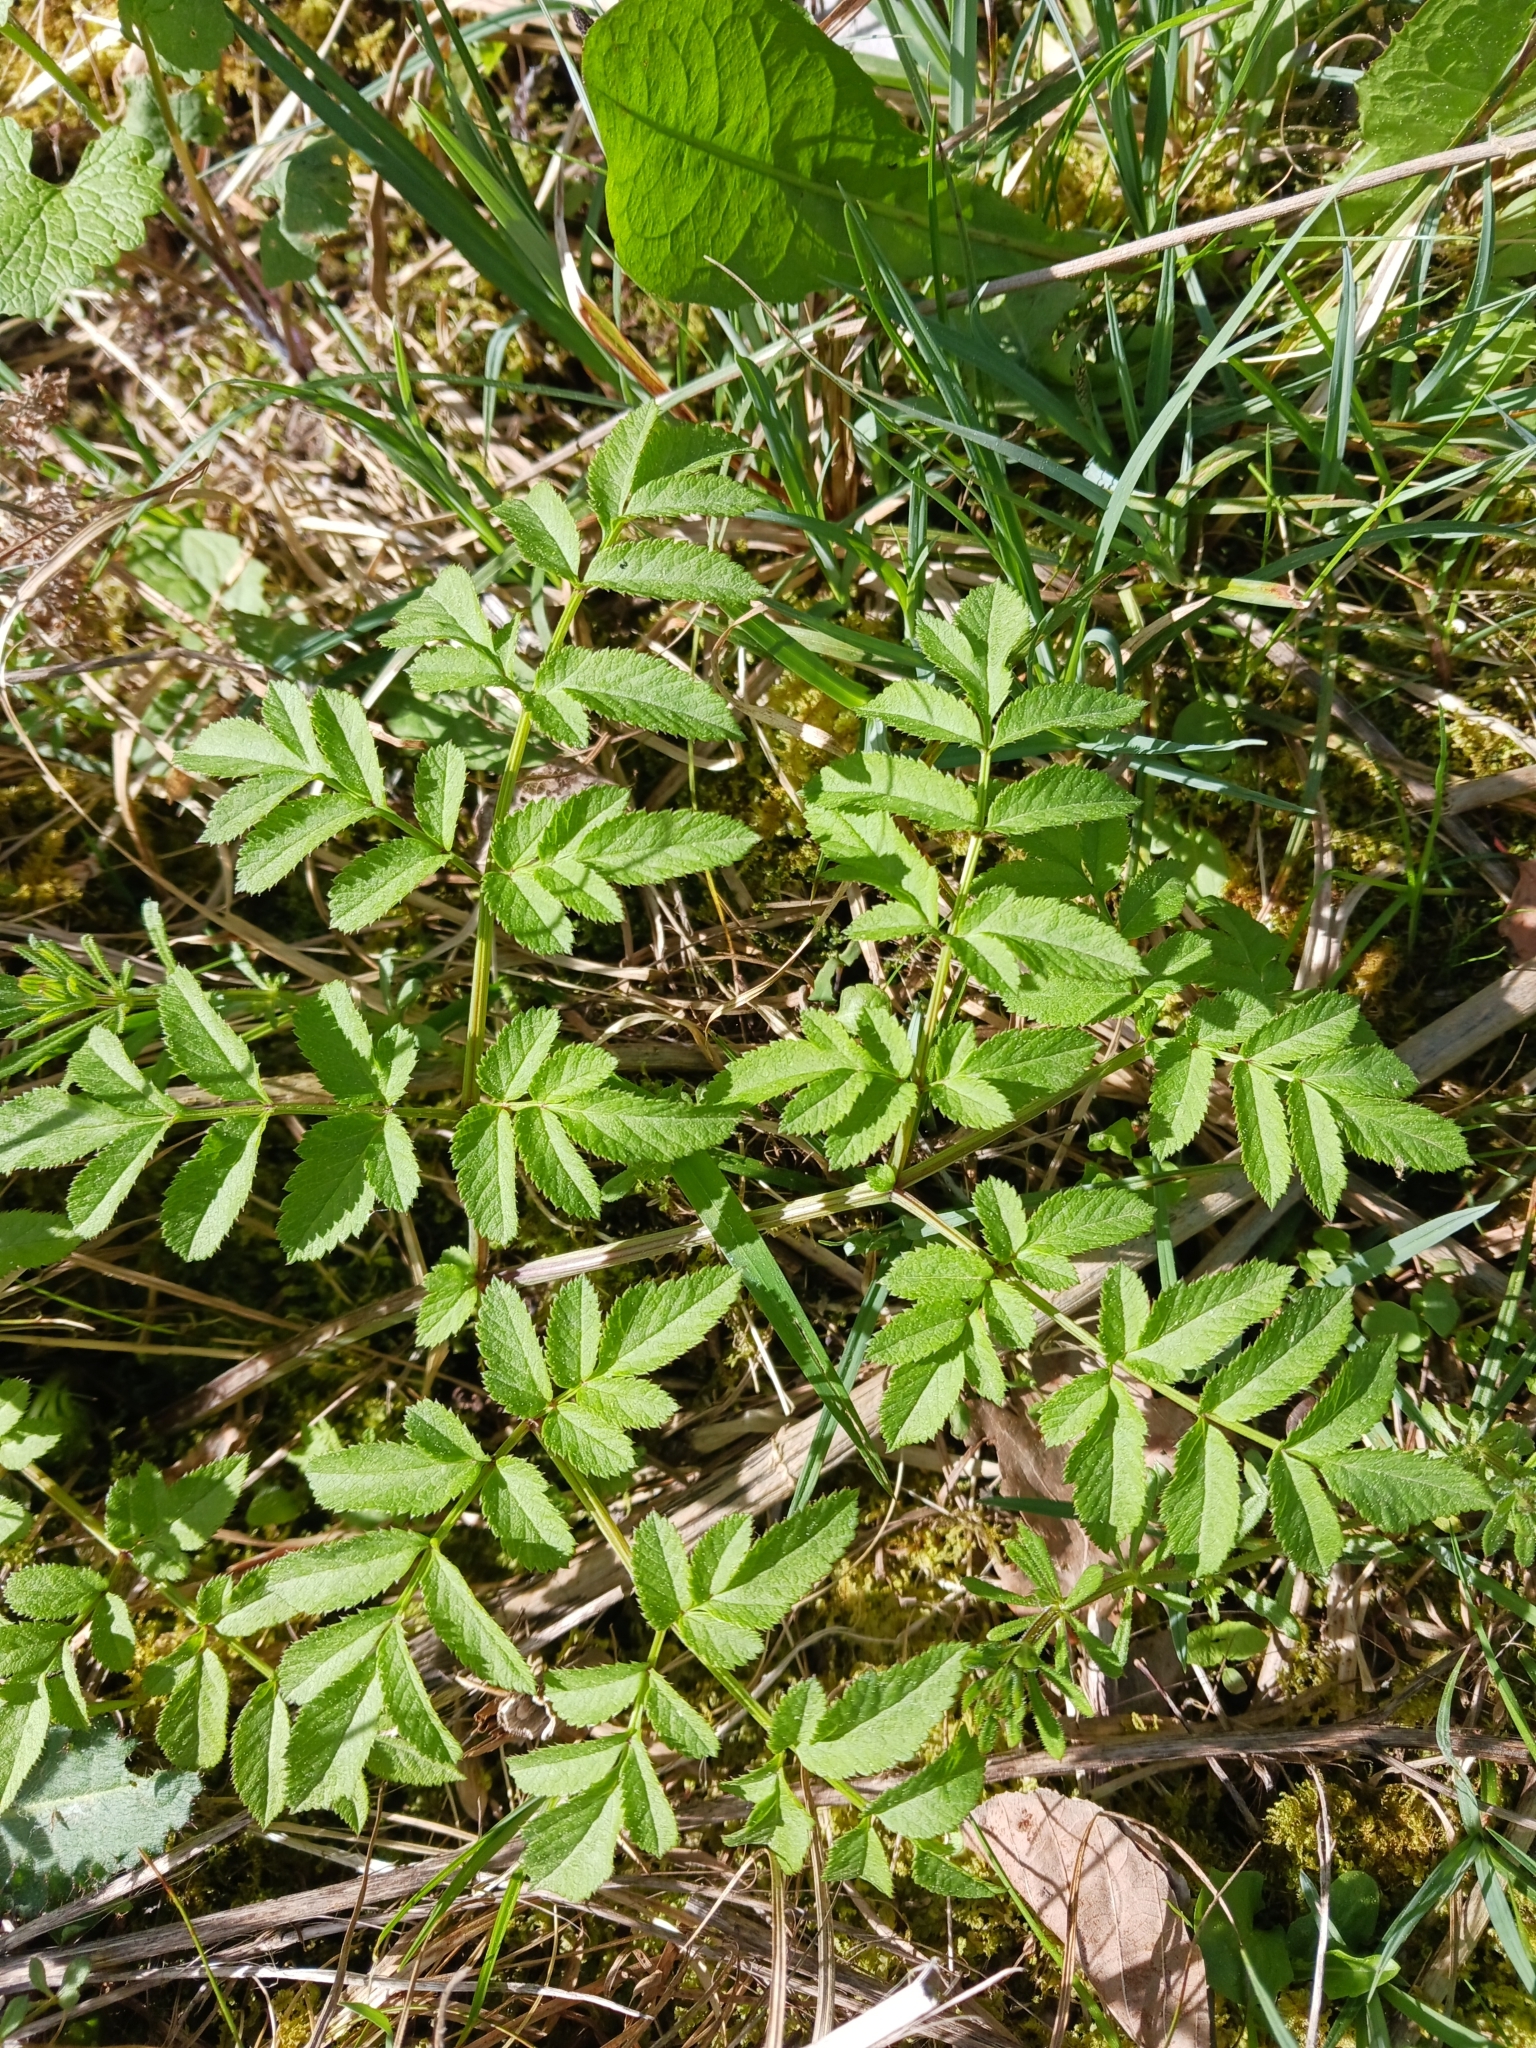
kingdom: Plantae
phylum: Tracheophyta
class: Magnoliopsida
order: Apiales
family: Apiaceae
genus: Angelica
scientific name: Angelica sylvestris
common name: Wild angelica
